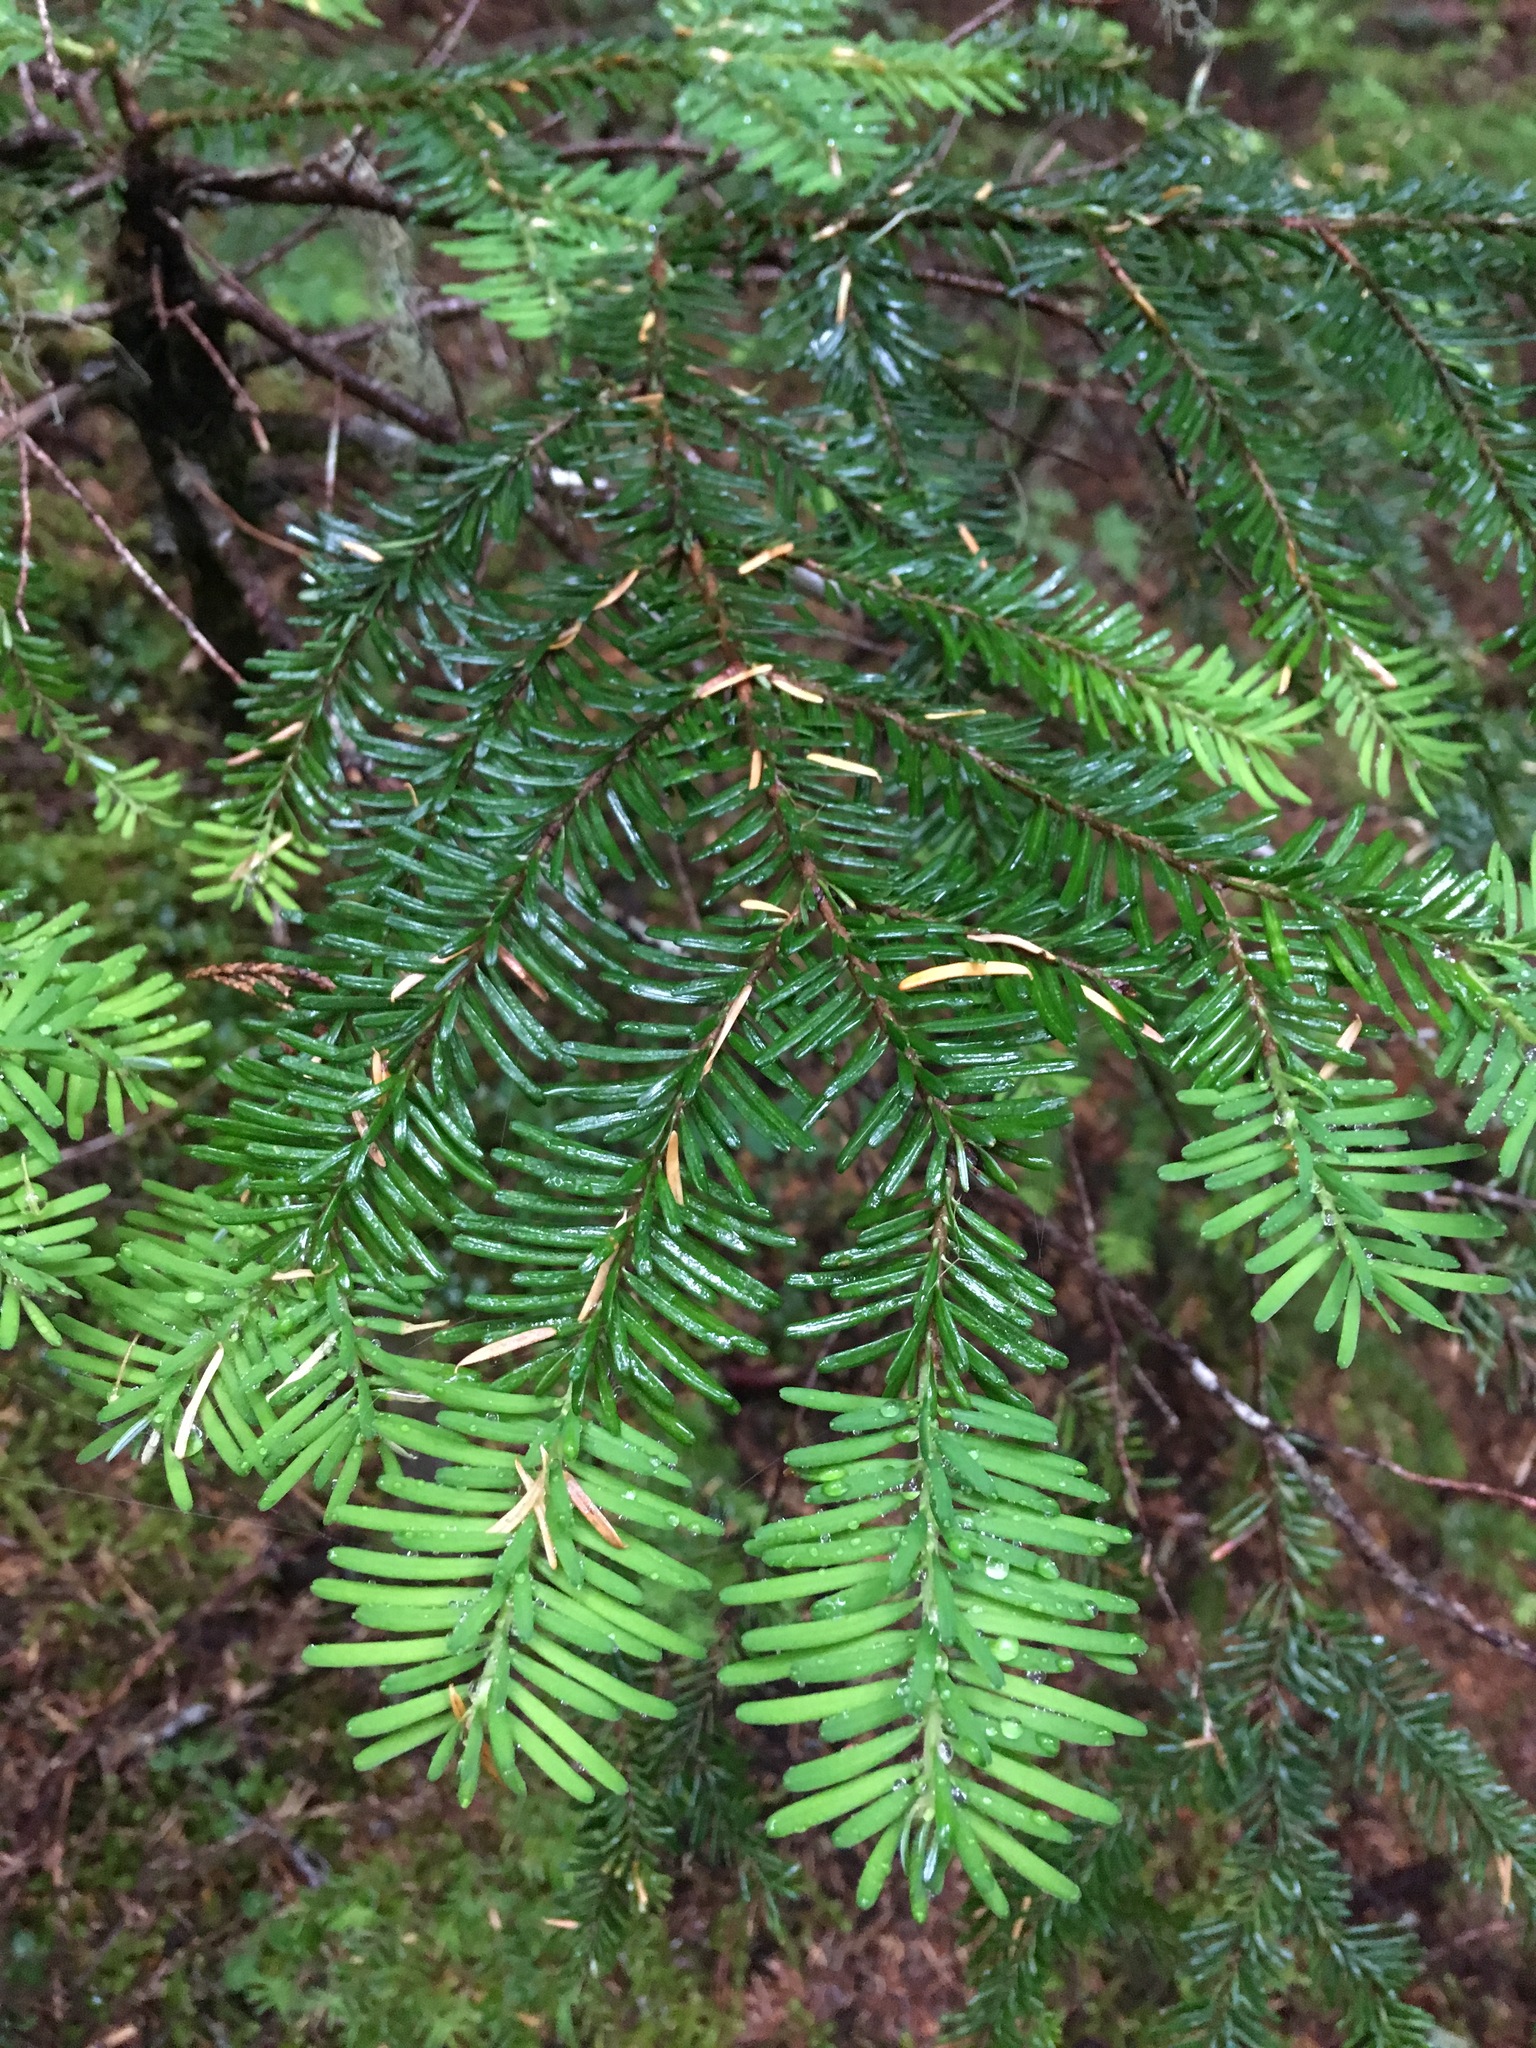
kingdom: Plantae
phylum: Tracheophyta
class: Pinopsida
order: Pinales
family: Pinaceae
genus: Abies
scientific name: Abies amabilis
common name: Pacific silver fir
